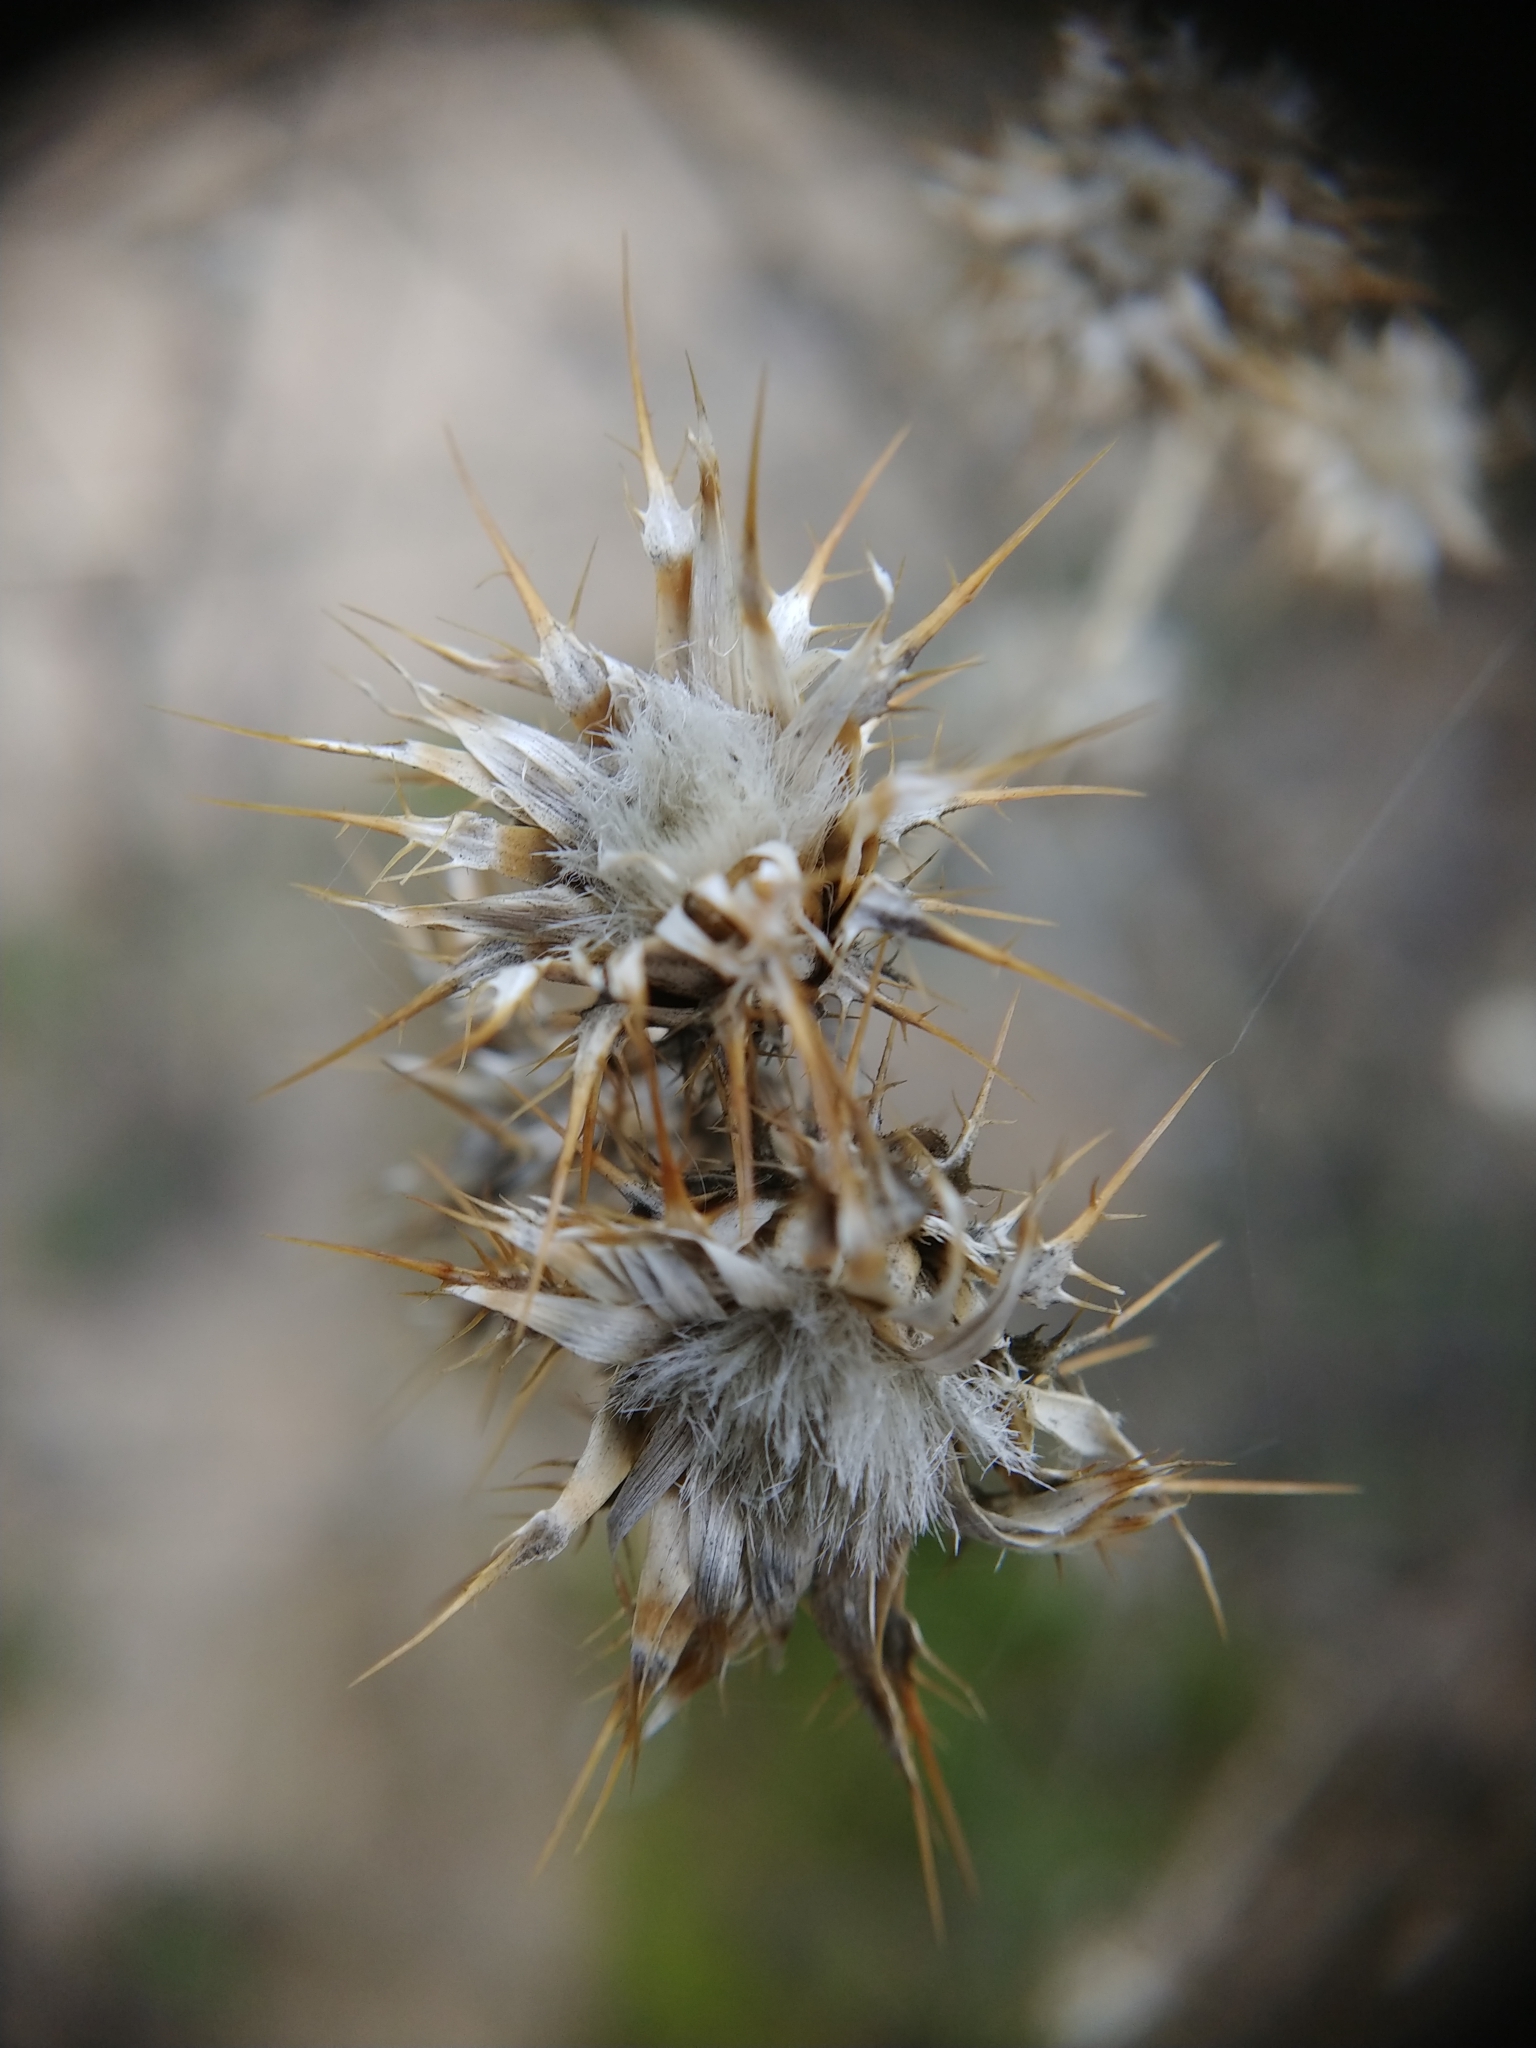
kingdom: Plantae
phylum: Tracheophyta
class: Magnoliopsida
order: Asterales
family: Asteraceae
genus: Centaurea
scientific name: Centaurea melitensis
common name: Maltese star-thistle
